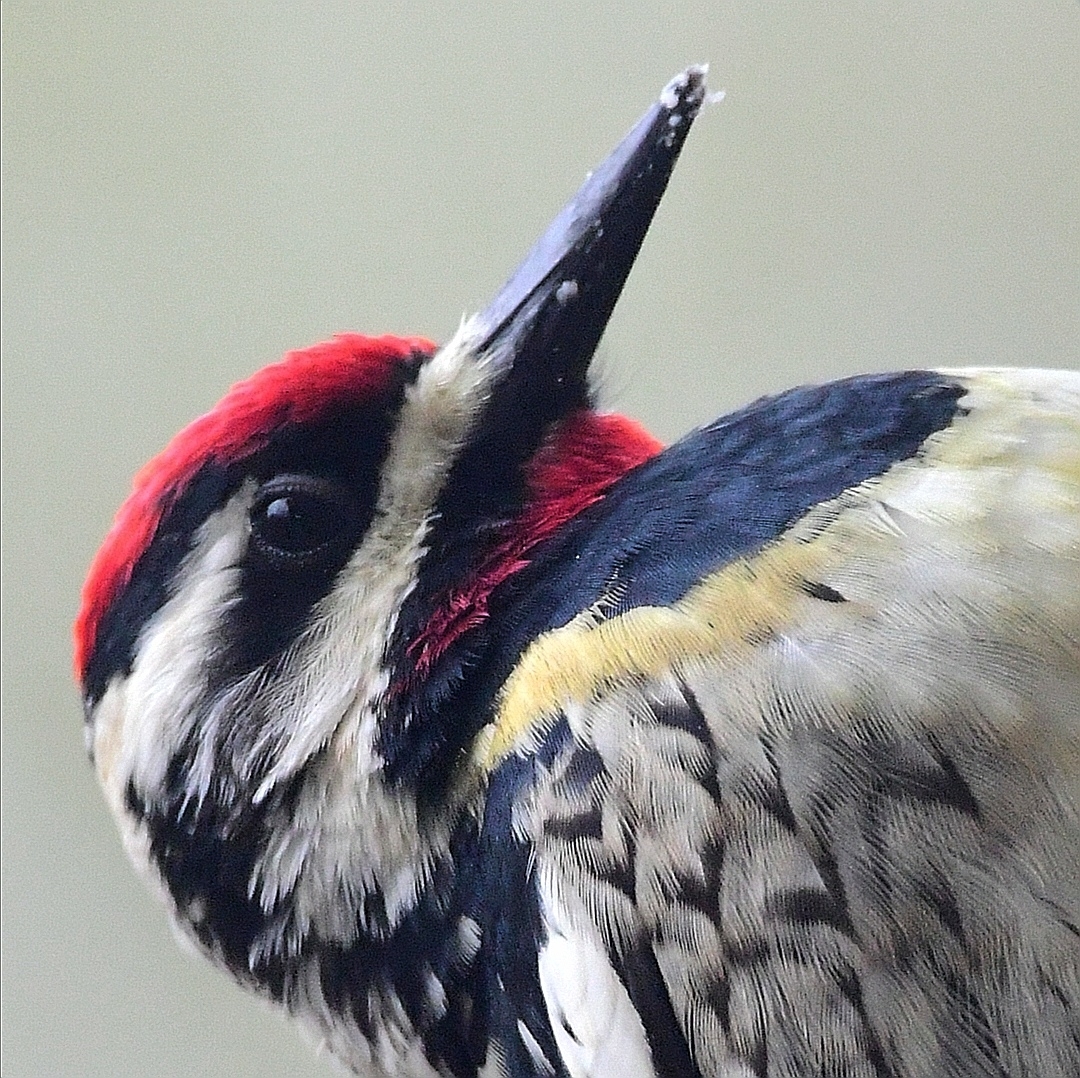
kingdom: Animalia
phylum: Chordata
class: Aves
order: Piciformes
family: Picidae
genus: Sphyrapicus
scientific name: Sphyrapicus varius
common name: Yellow-bellied sapsucker
